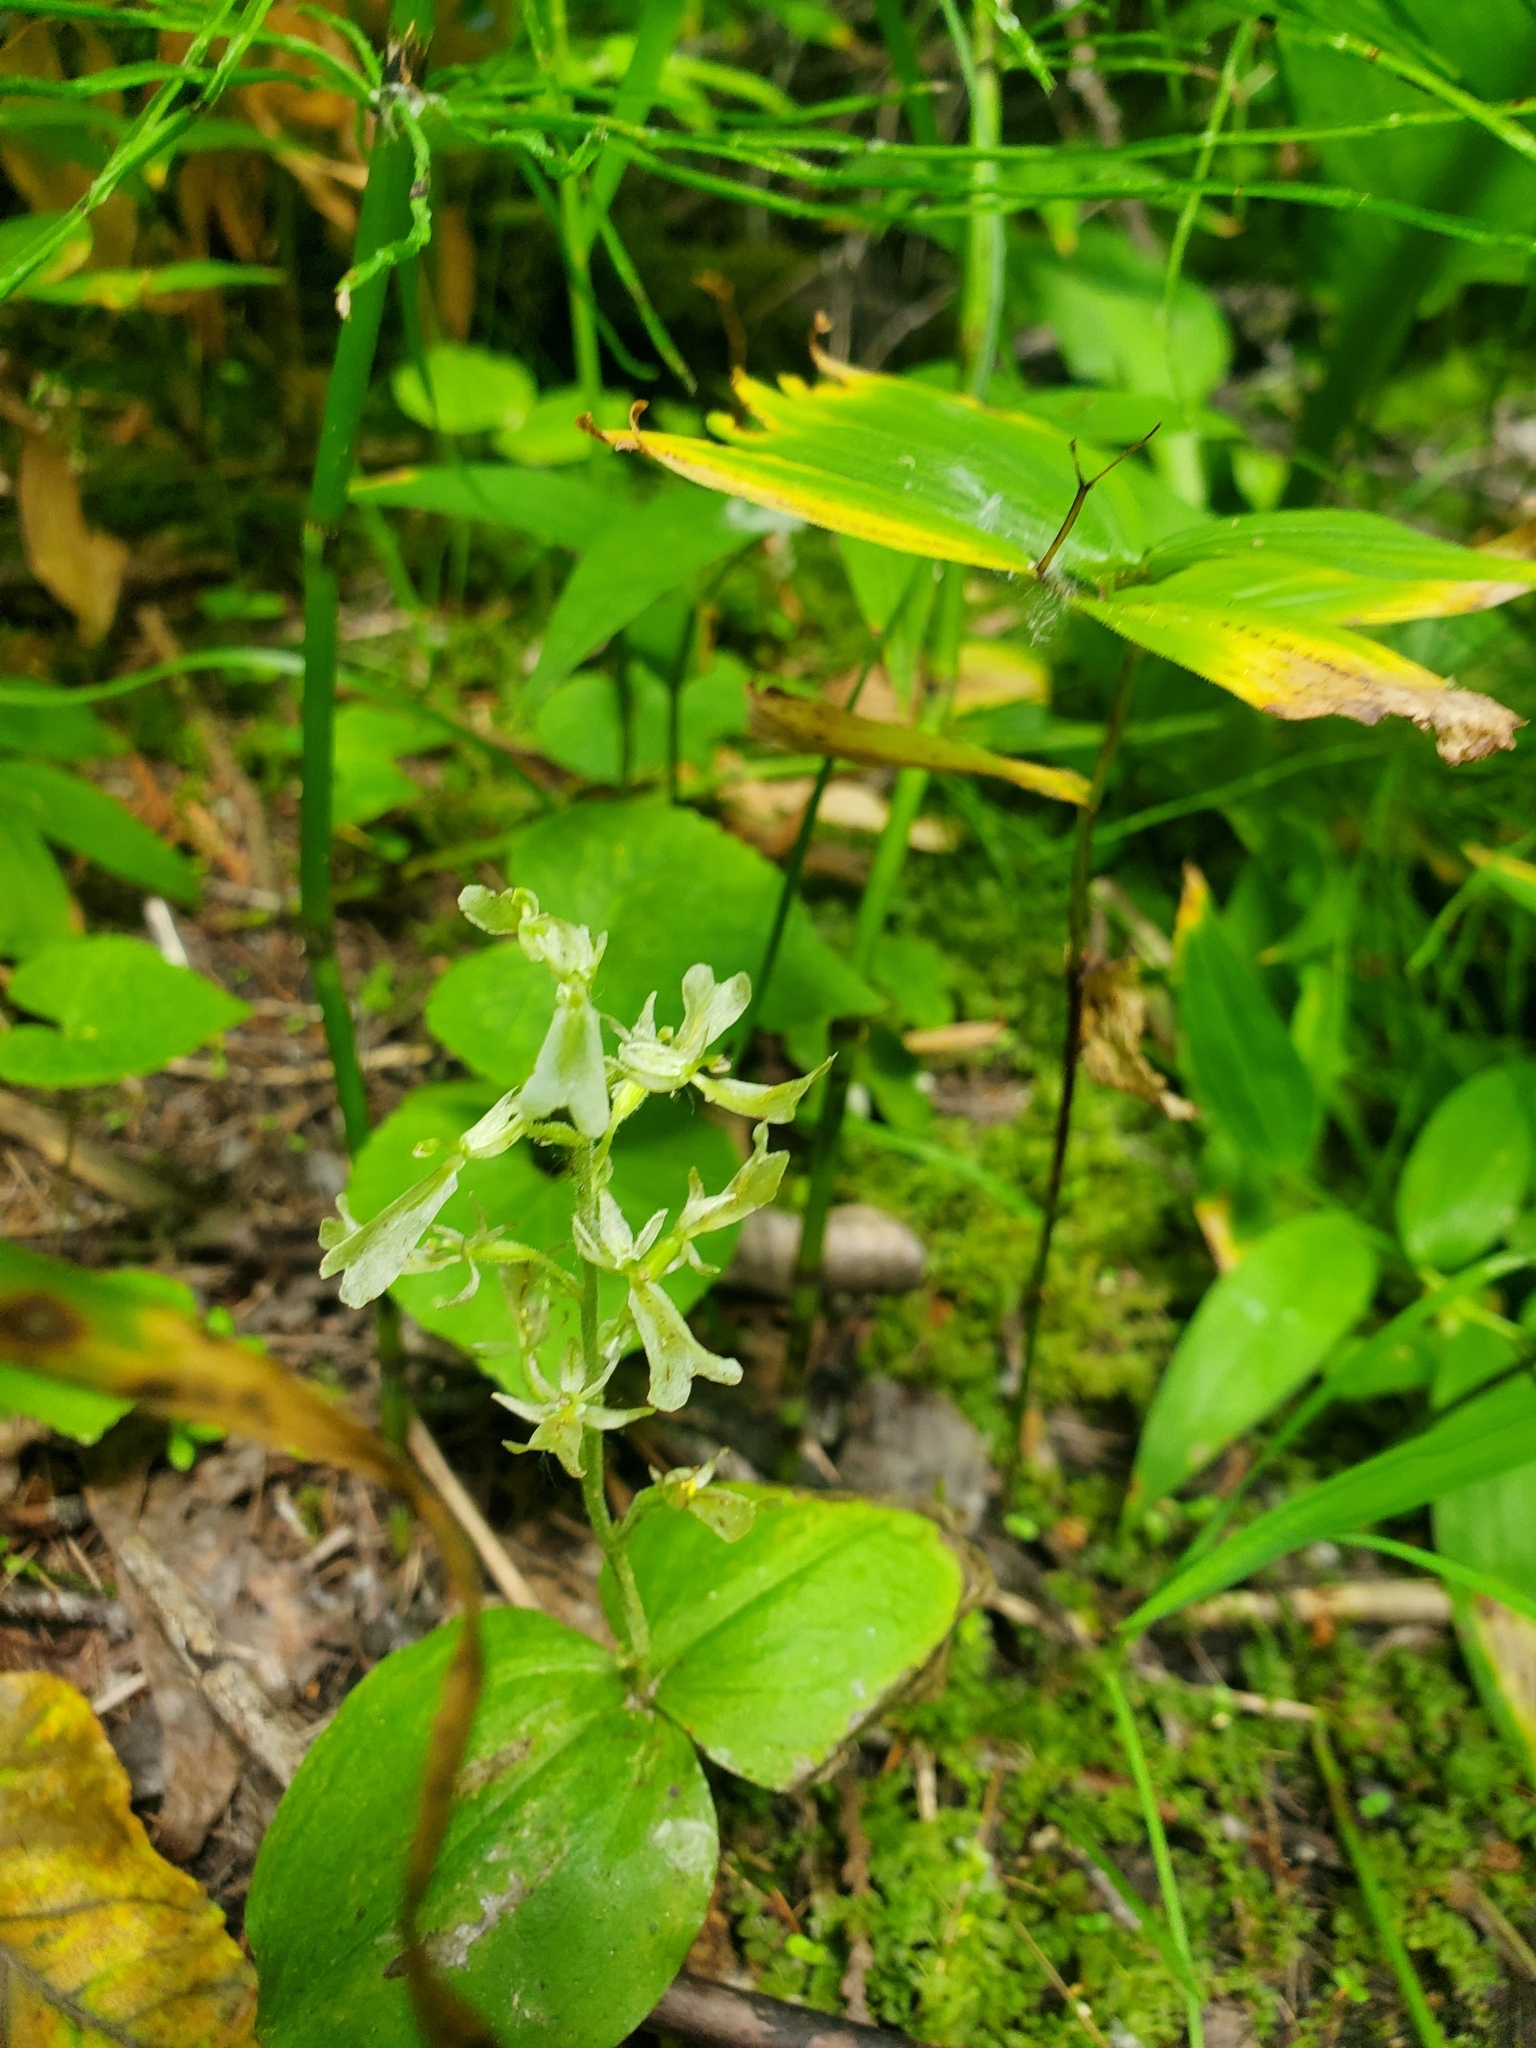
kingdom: Plantae
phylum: Tracheophyta
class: Liliopsida
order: Asparagales
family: Orchidaceae
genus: Neottia
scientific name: Neottia convallarioides
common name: Broadleaf twayblade
